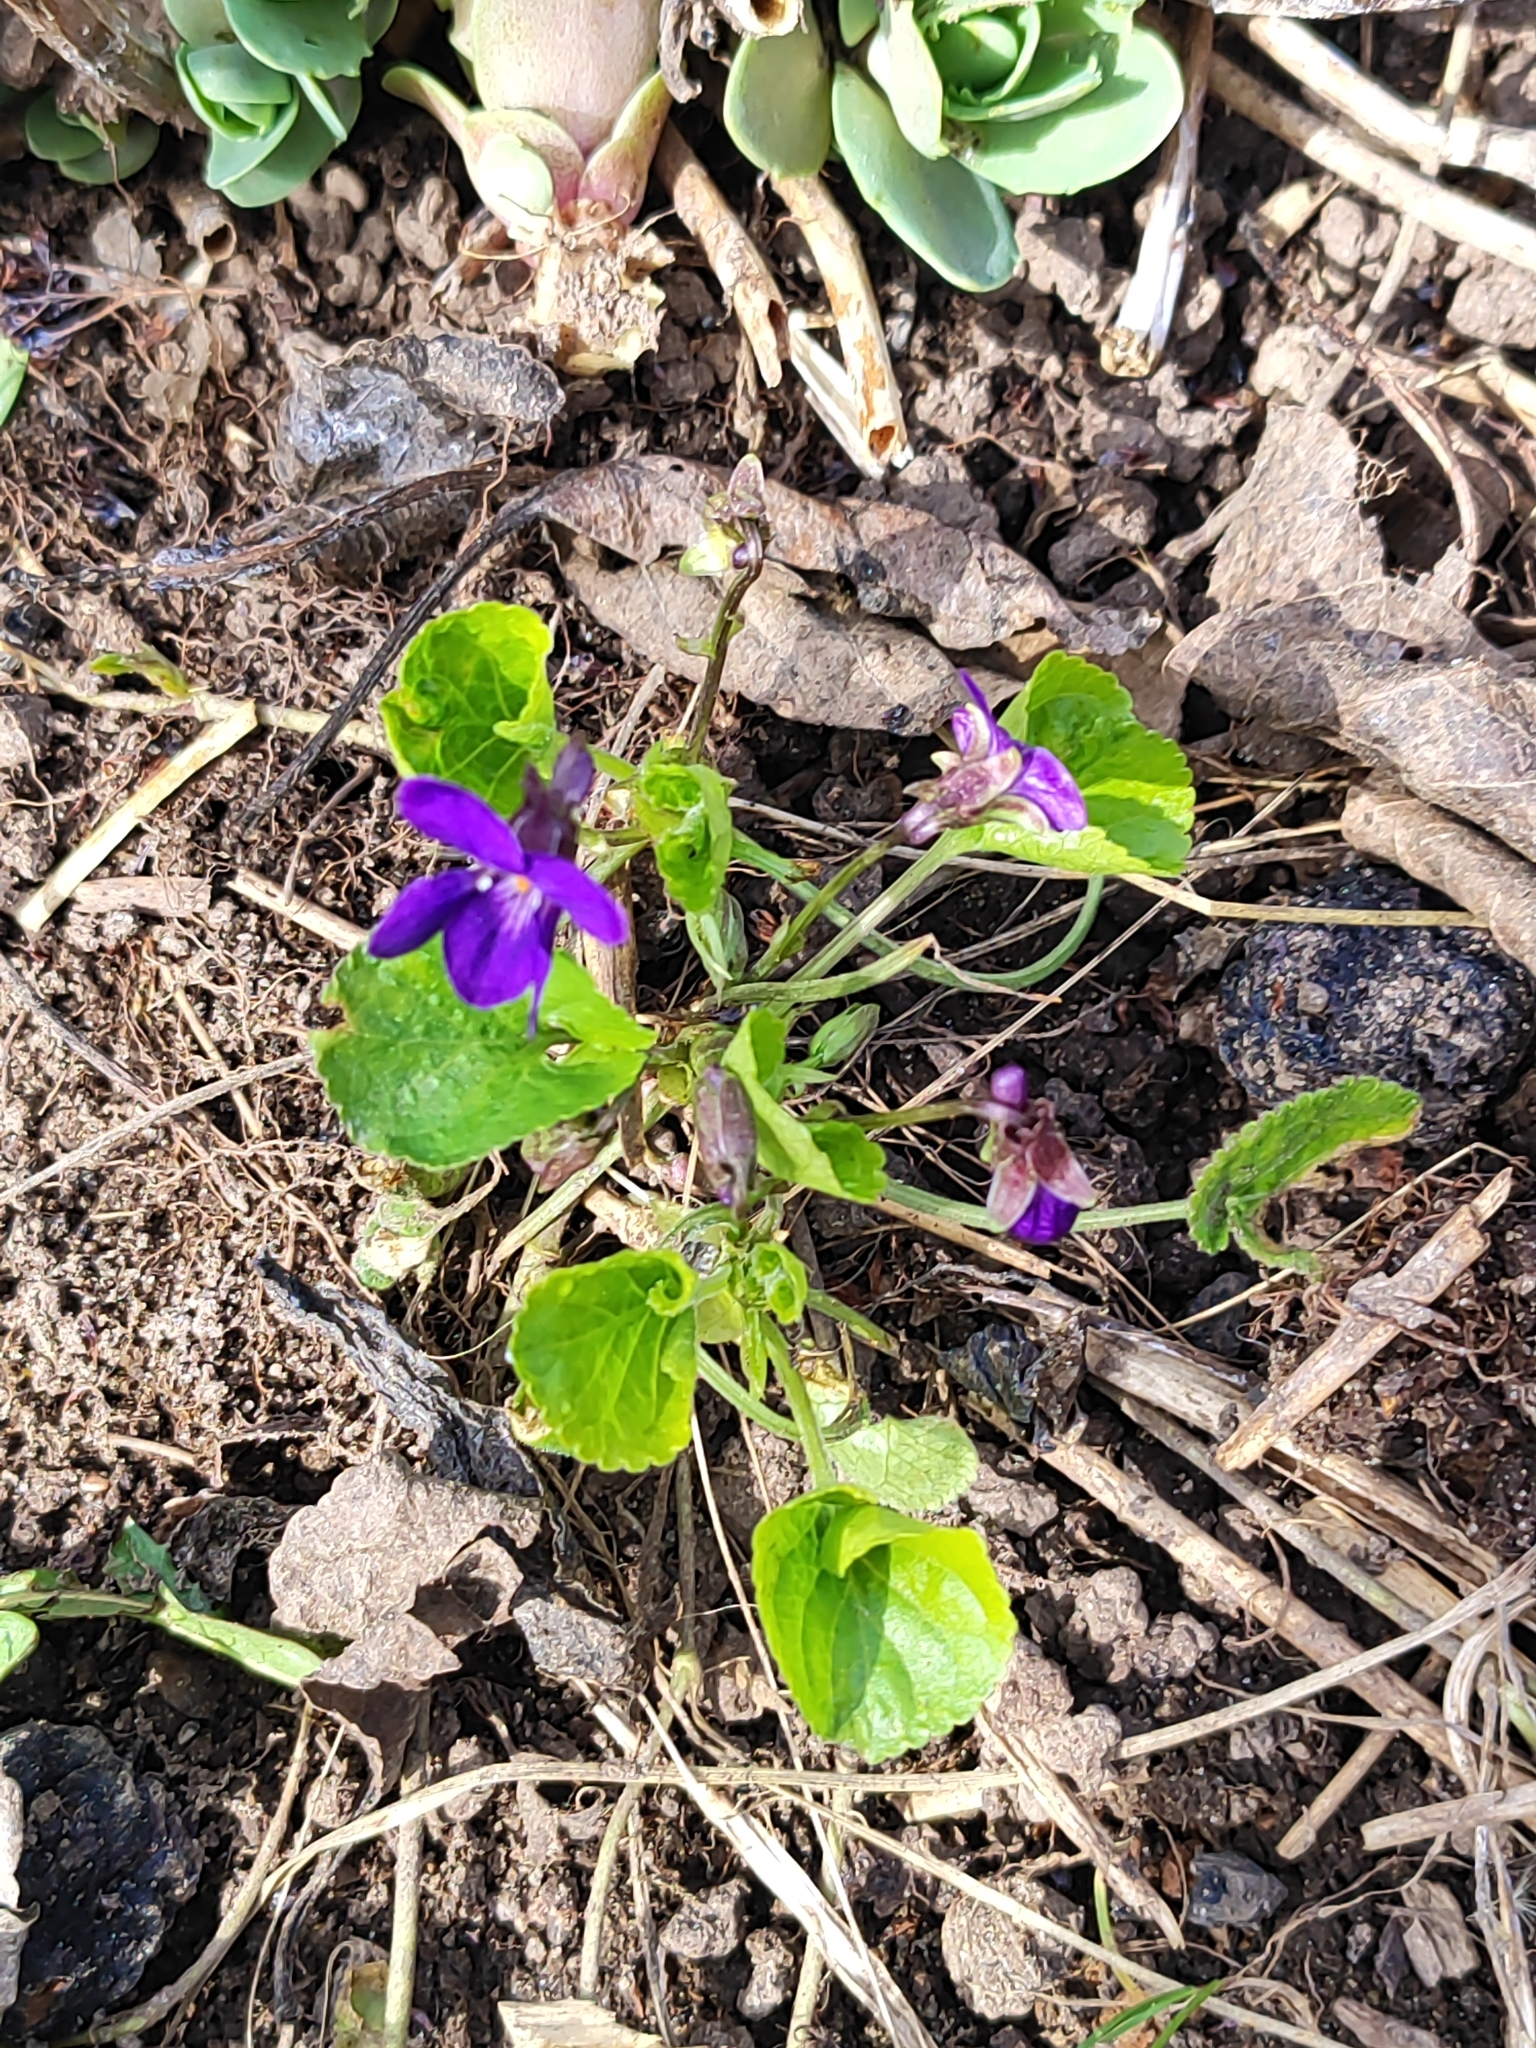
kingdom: Plantae
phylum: Tracheophyta
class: Magnoliopsida
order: Malpighiales
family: Violaceae
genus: Viola
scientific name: Viola odorata
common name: Sweet violet
